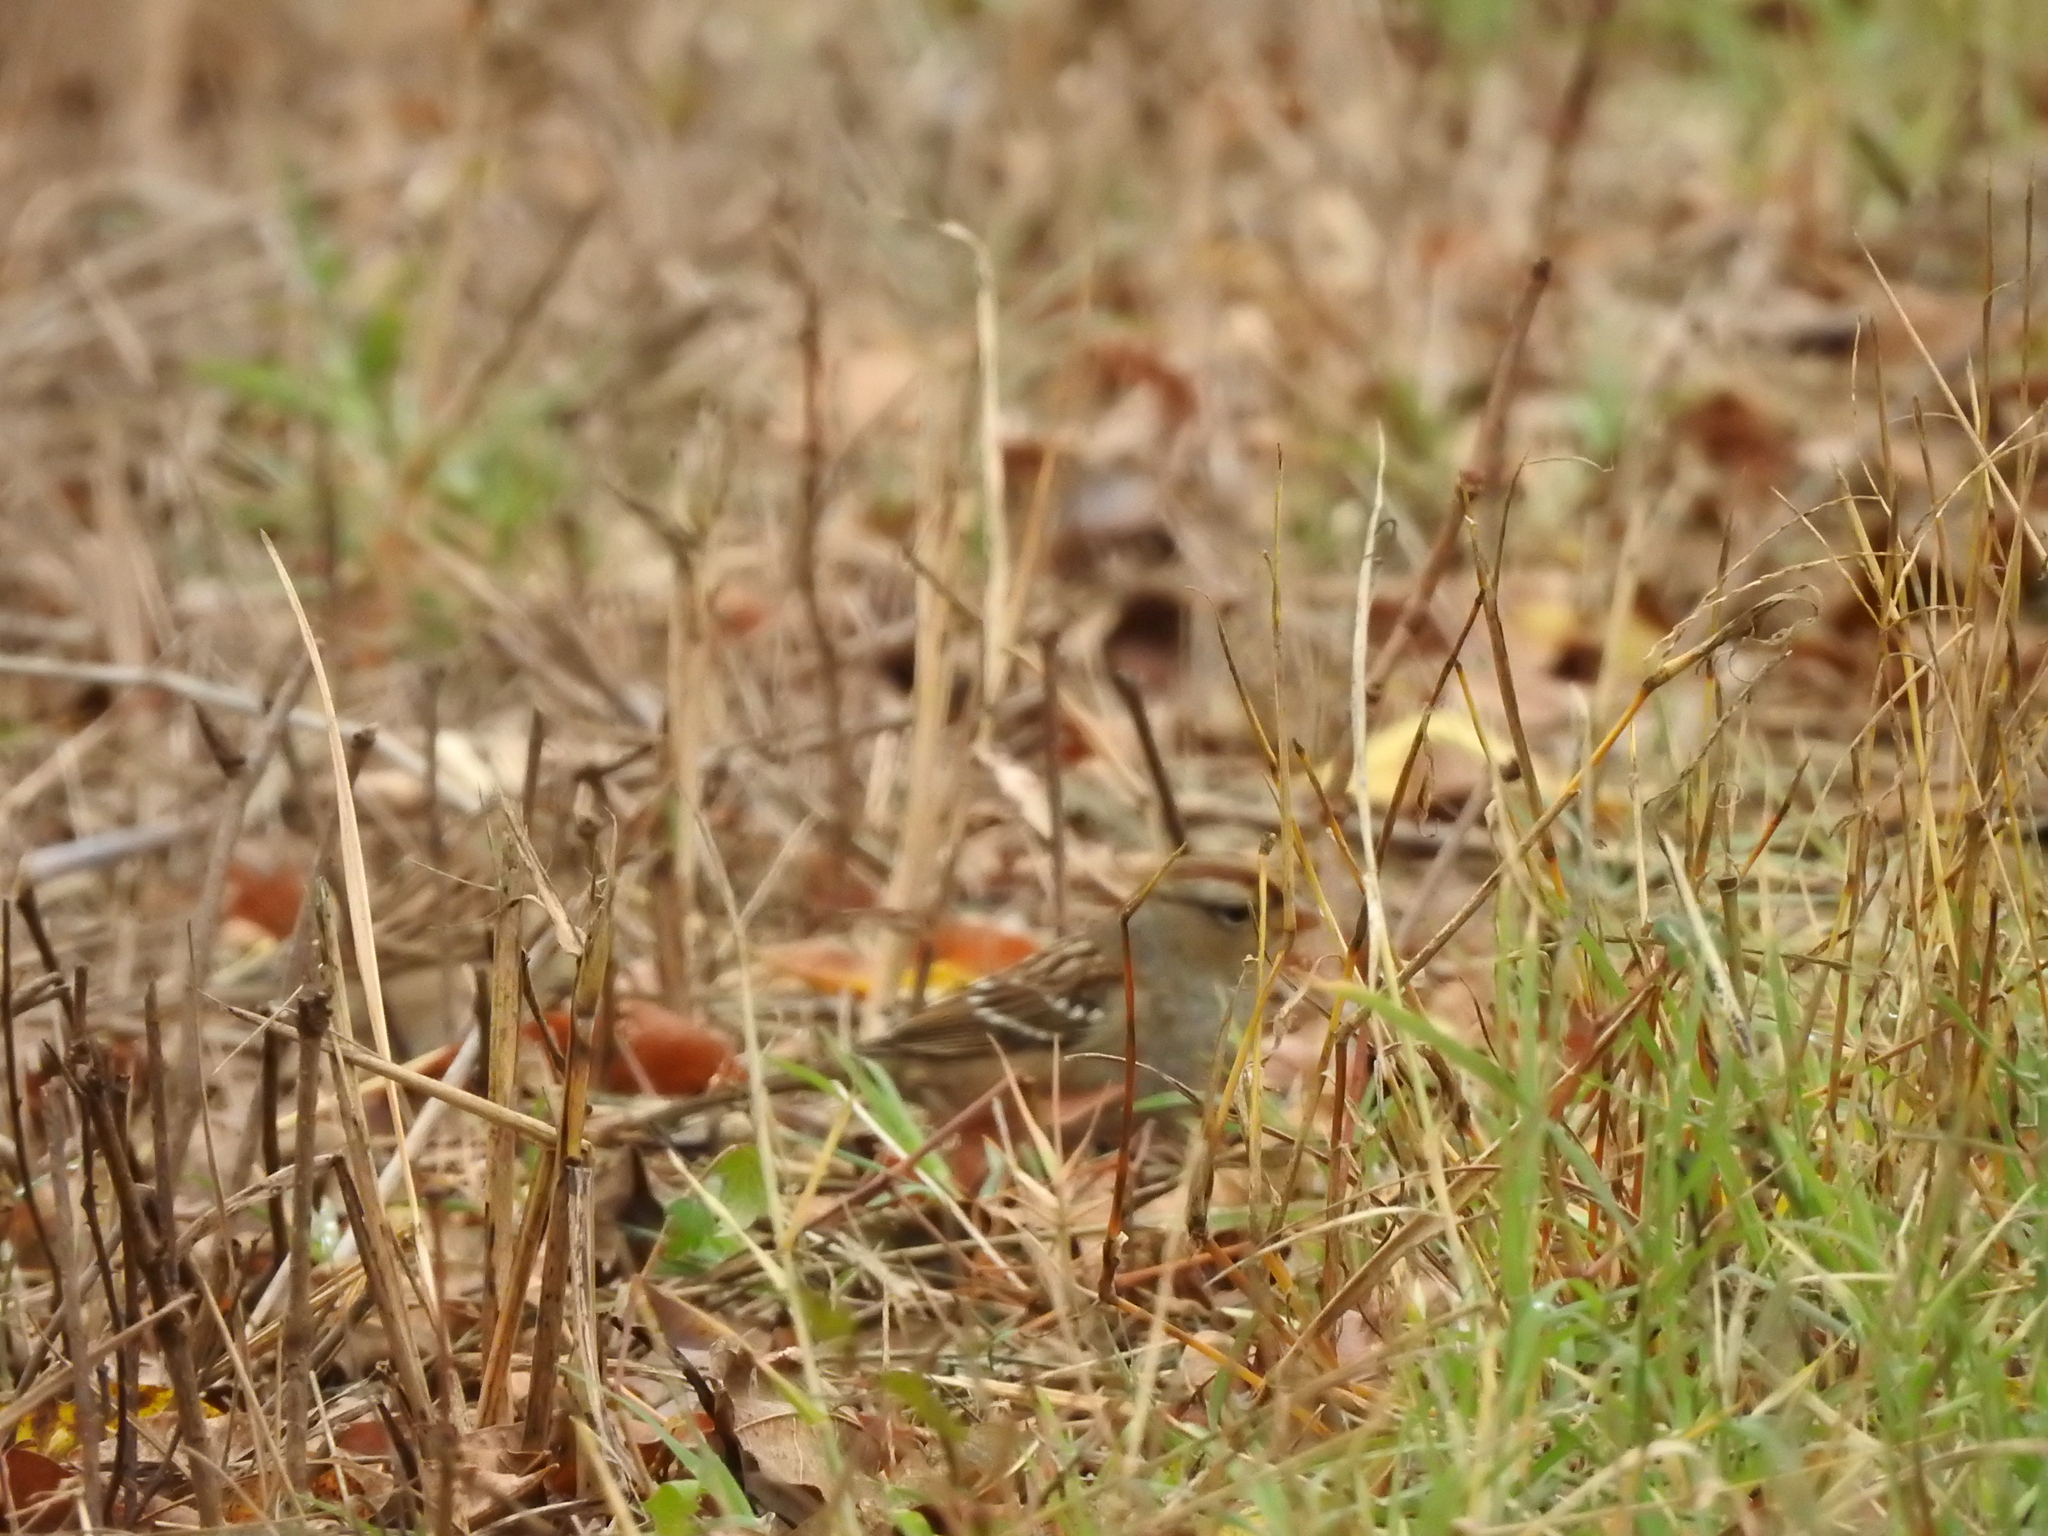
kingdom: Animalia
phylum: Chordata
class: Aves
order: Passeriformes
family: Passerellidae
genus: Zonotrichia
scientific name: Zonotrichia leucophrys
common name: White-crowned sparrow
